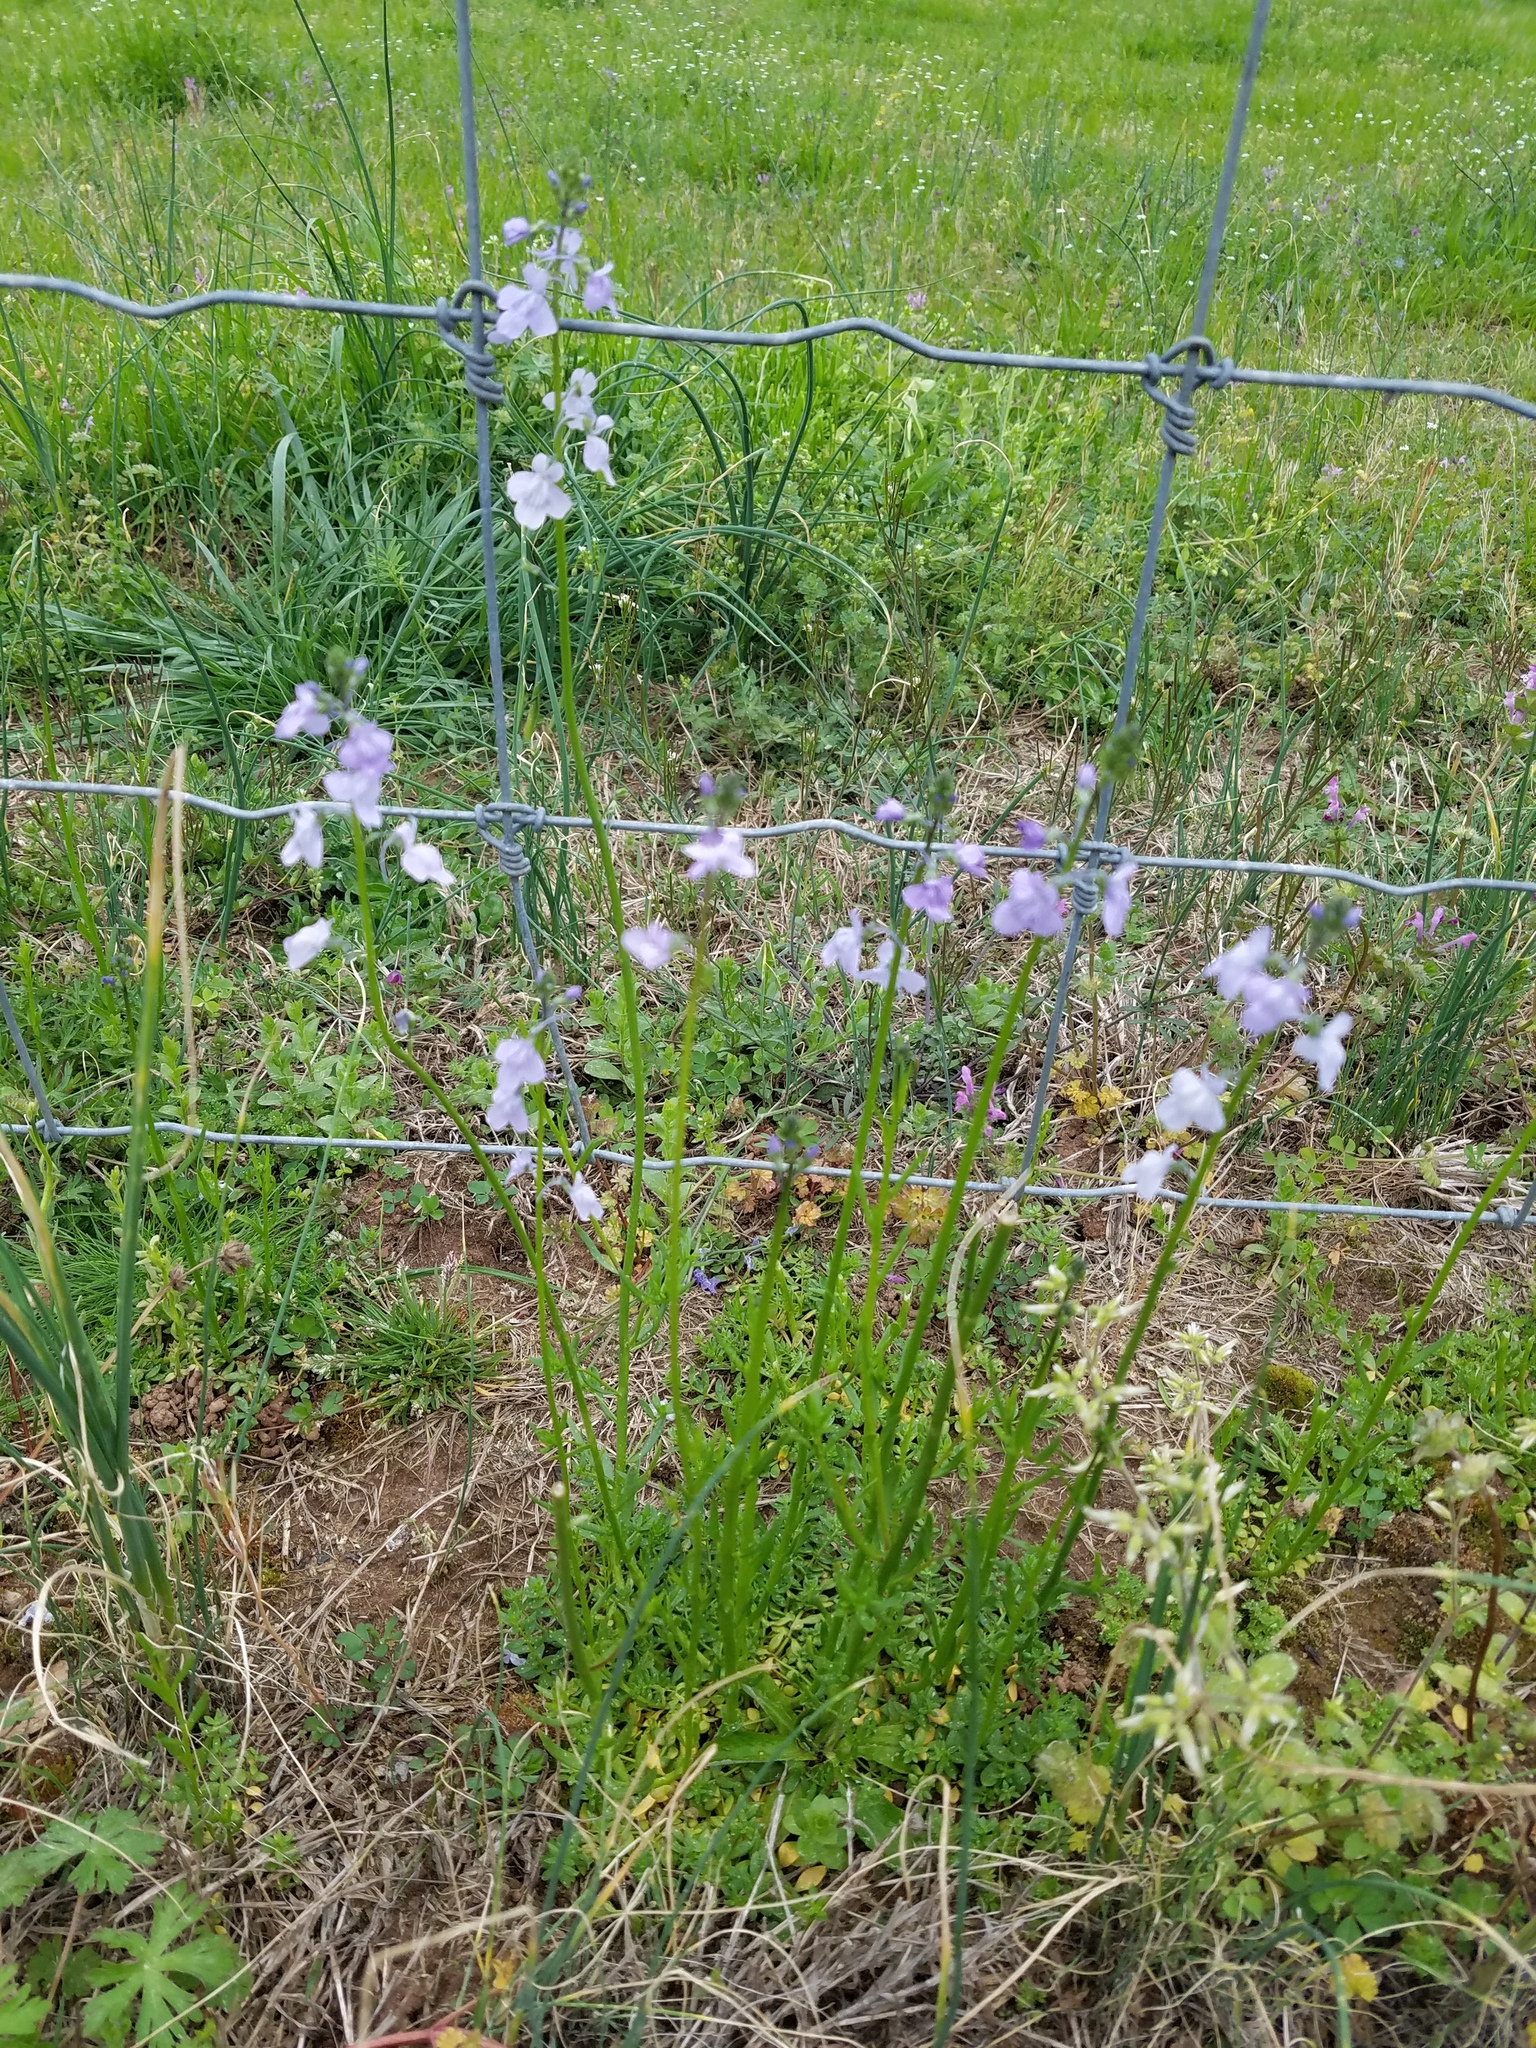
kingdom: Plantae
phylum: Tracheophyta
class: Magnoliopsida
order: Lamiales
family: Plantaginaceae
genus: Nuttallanthus
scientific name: Nuttallanthus texanus
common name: Texas toadflax
